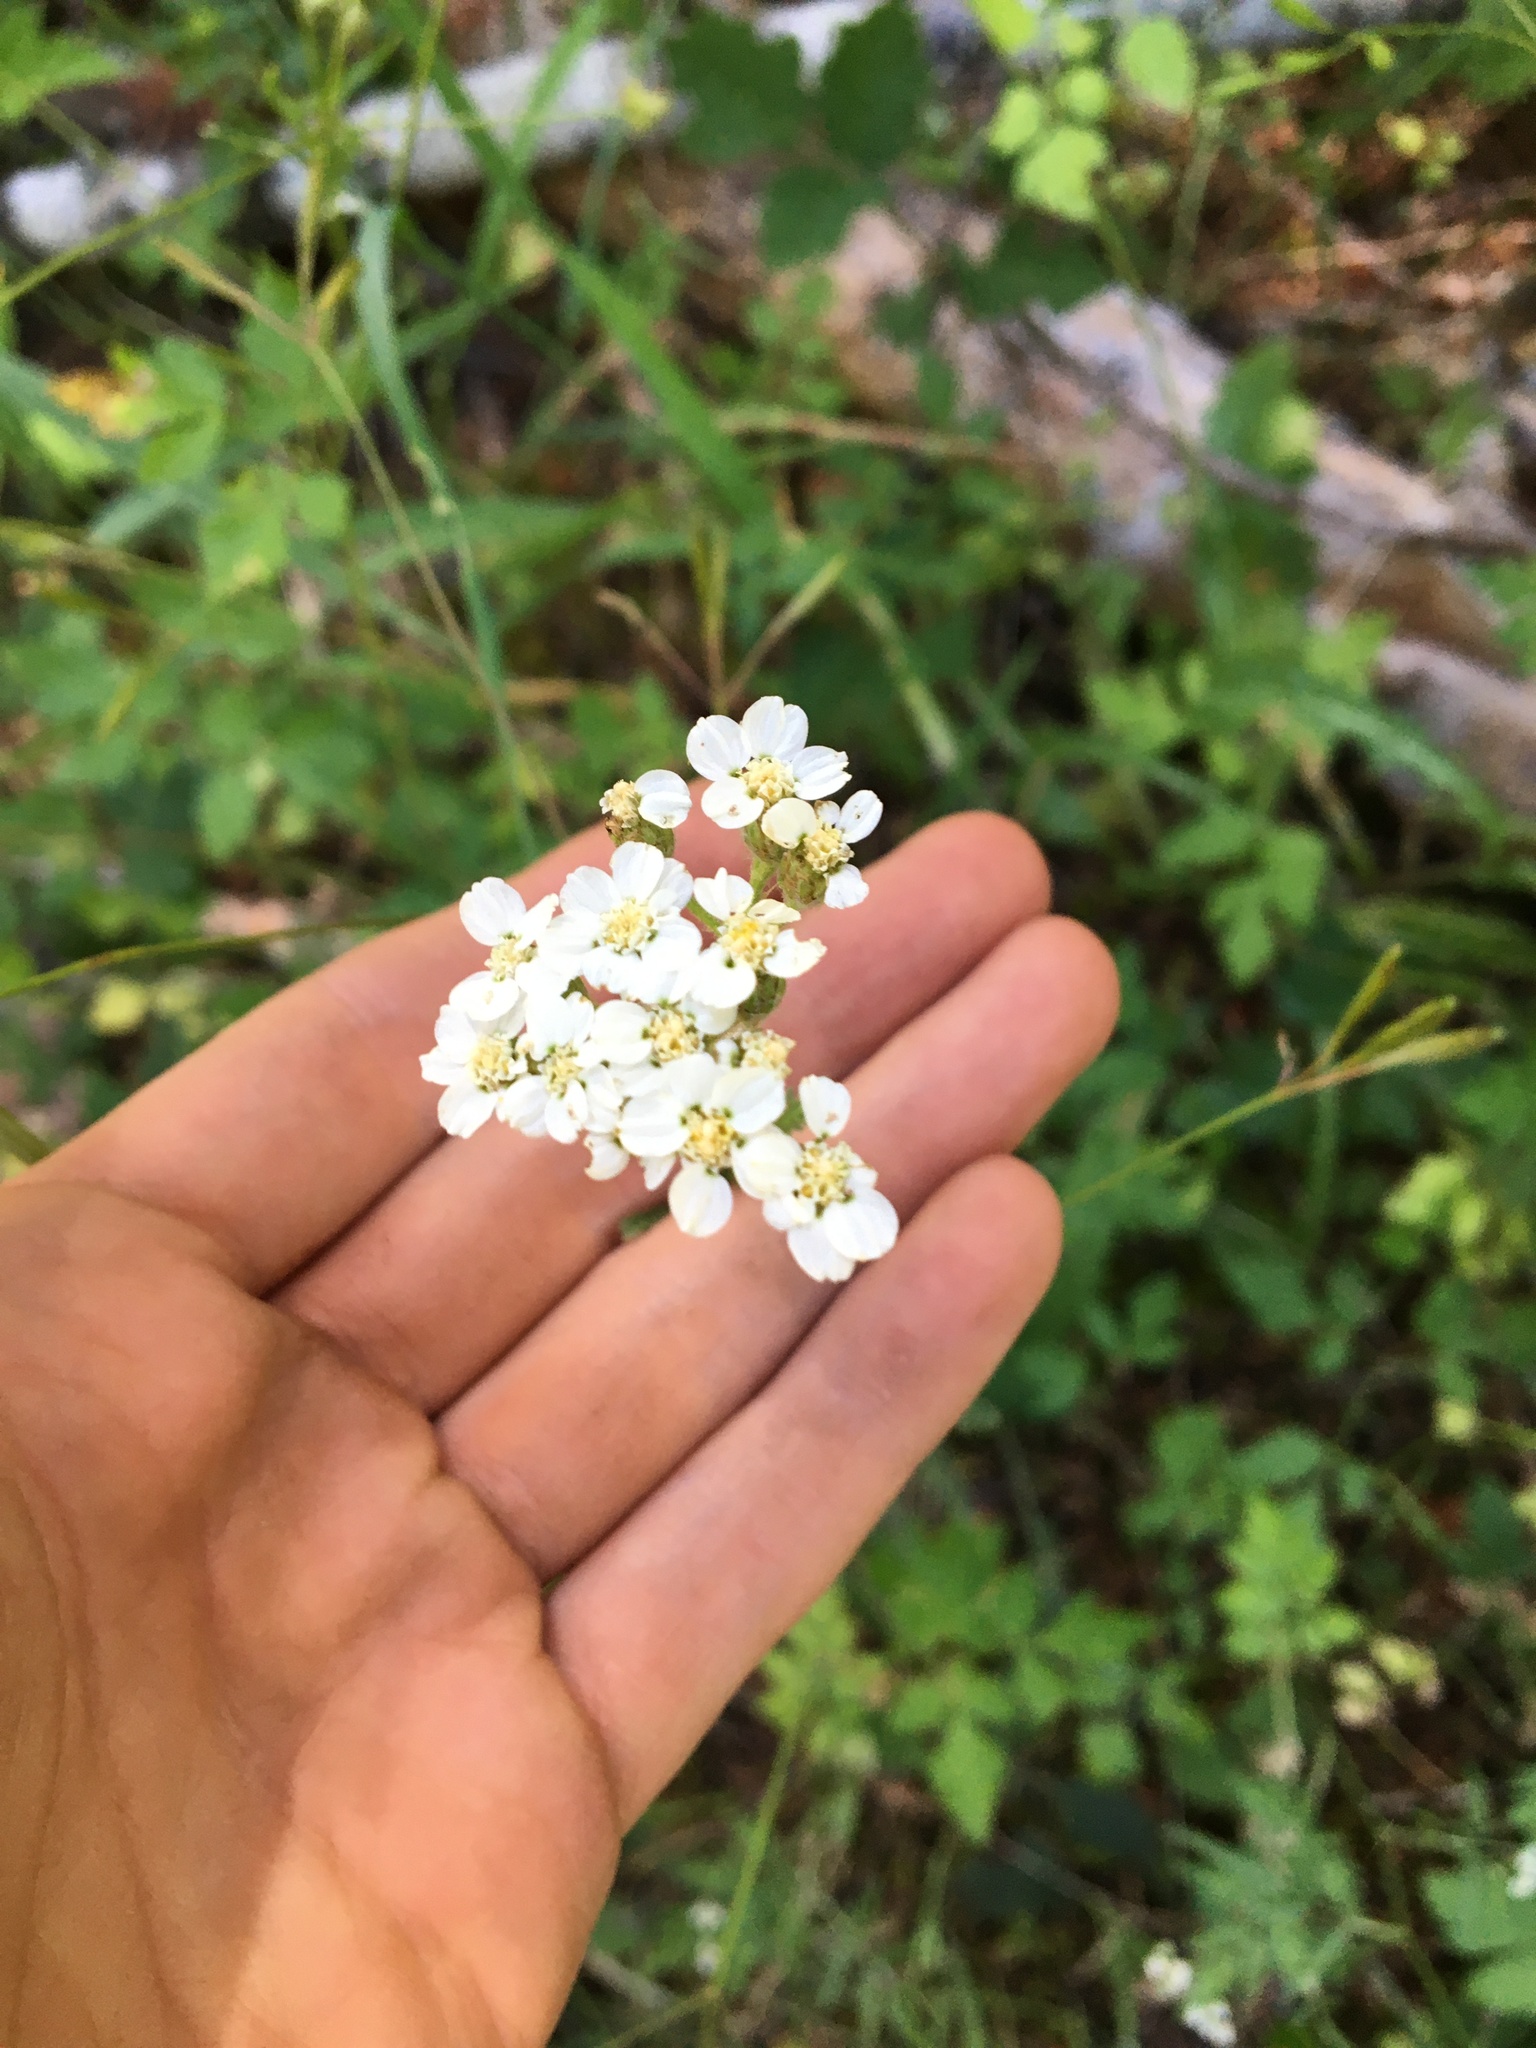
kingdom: Plantae
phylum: Tracheophyta
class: Magnoliopsida
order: Asterales
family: Asteraceae
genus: Achillea
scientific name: Achillea millefolium
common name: Yarrow
